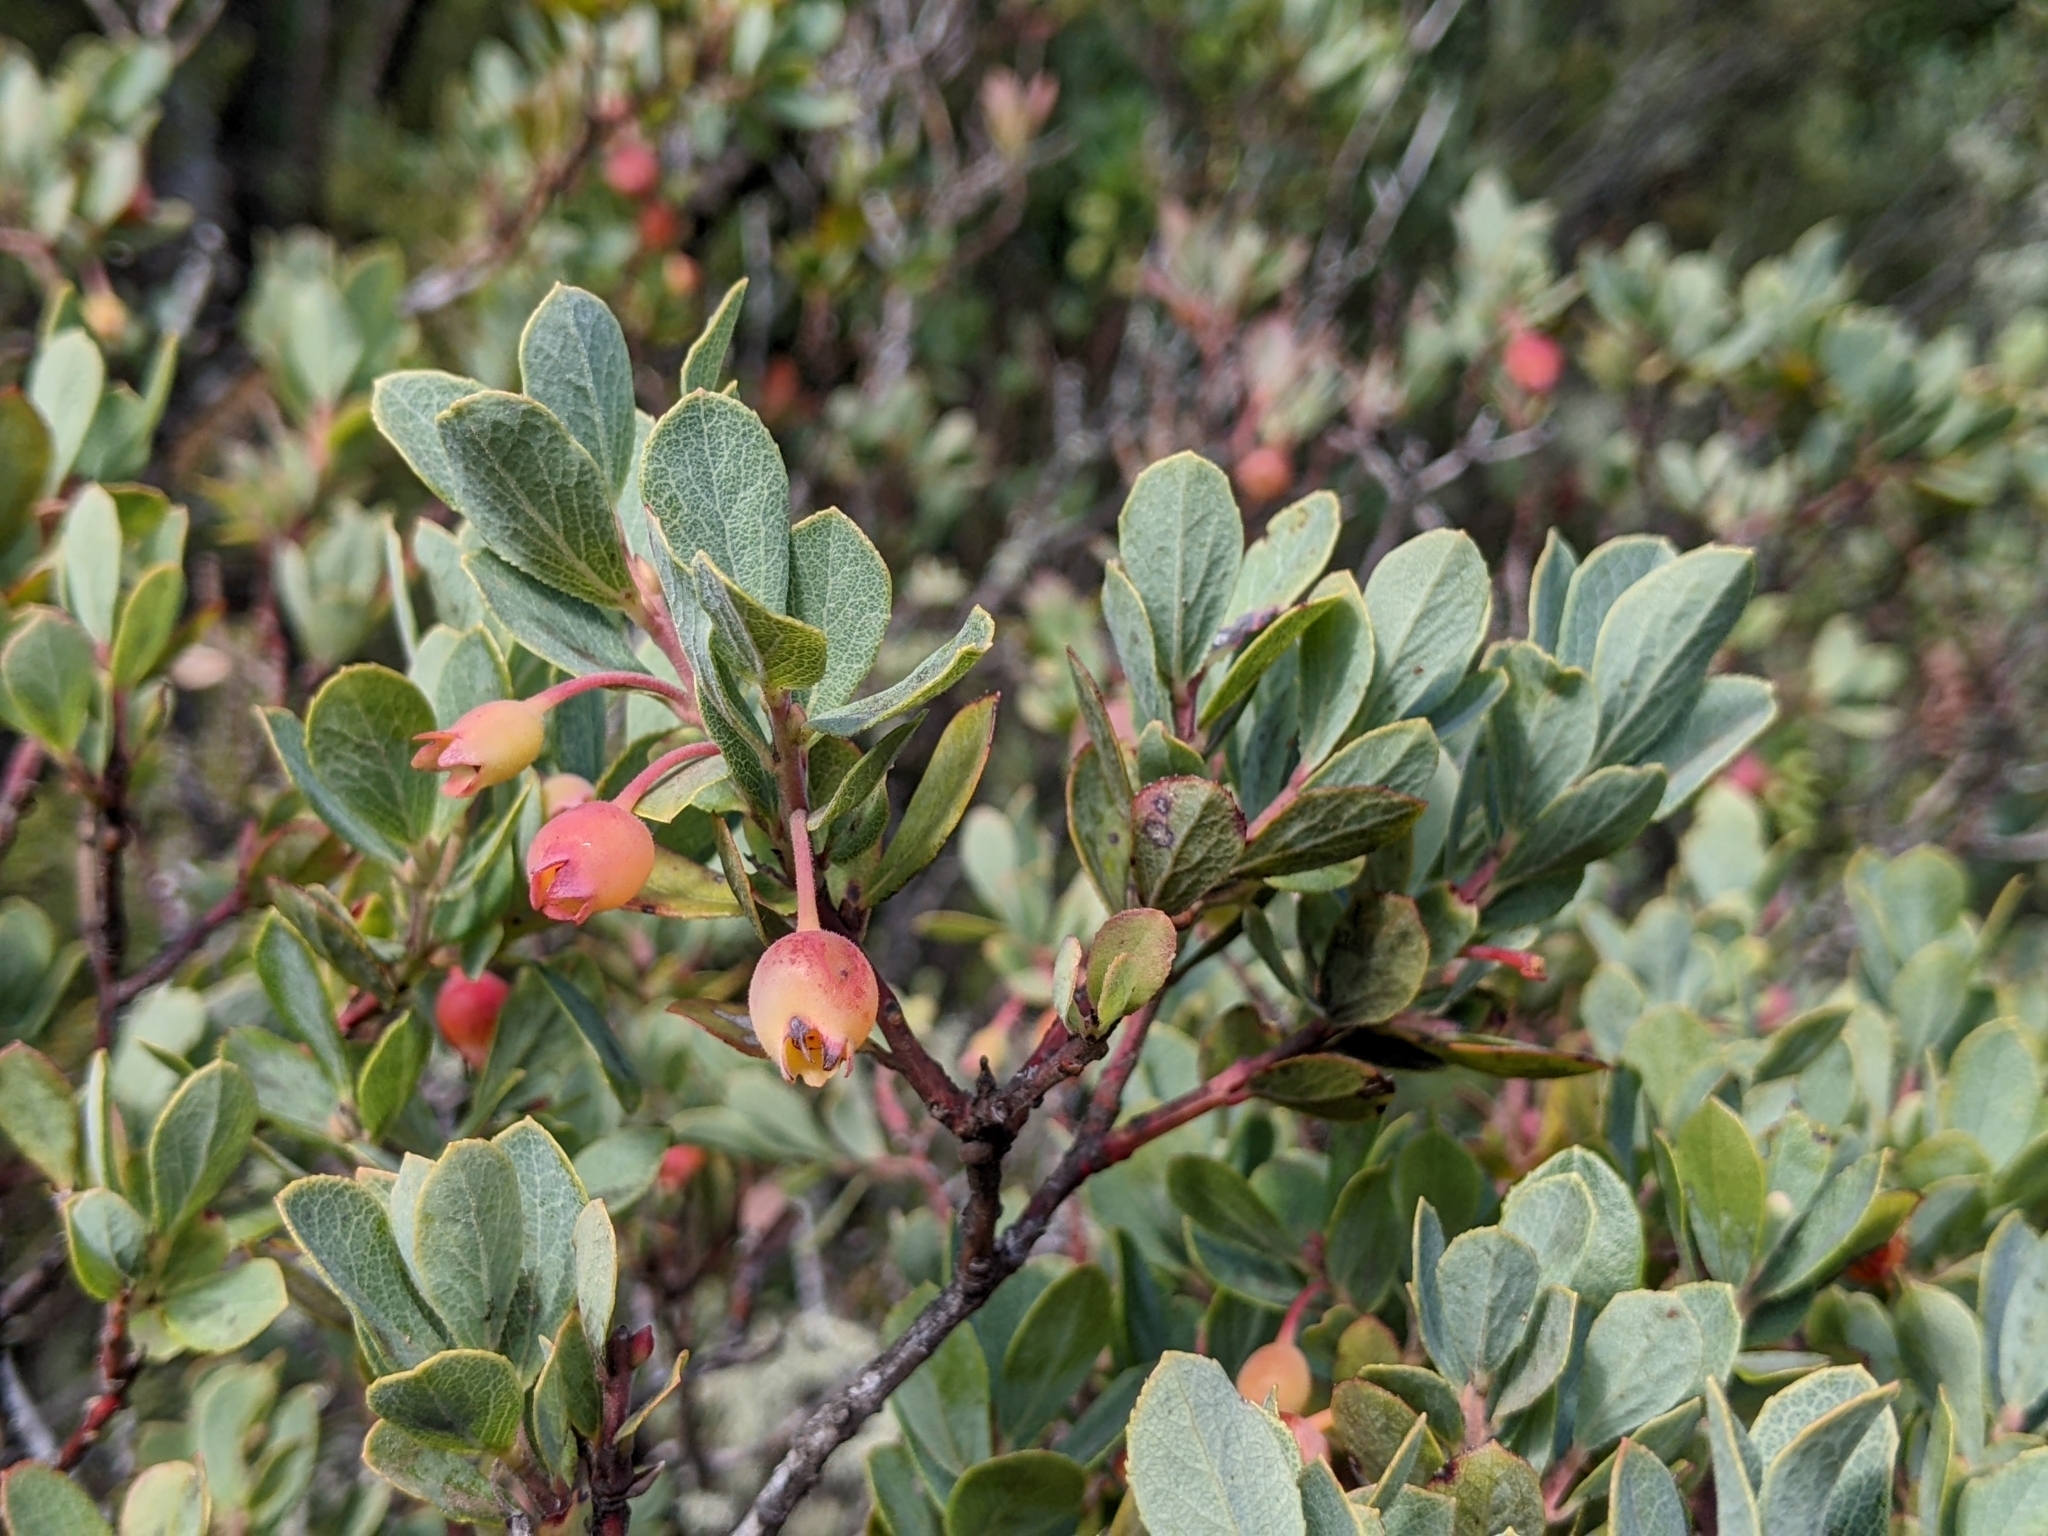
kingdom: Plantae
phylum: Tracheophyta
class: Magnoliopsida
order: Ericales
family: Ericaceae
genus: Vaccinium
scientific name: Vaccinium reticulatum
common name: Ohelo
